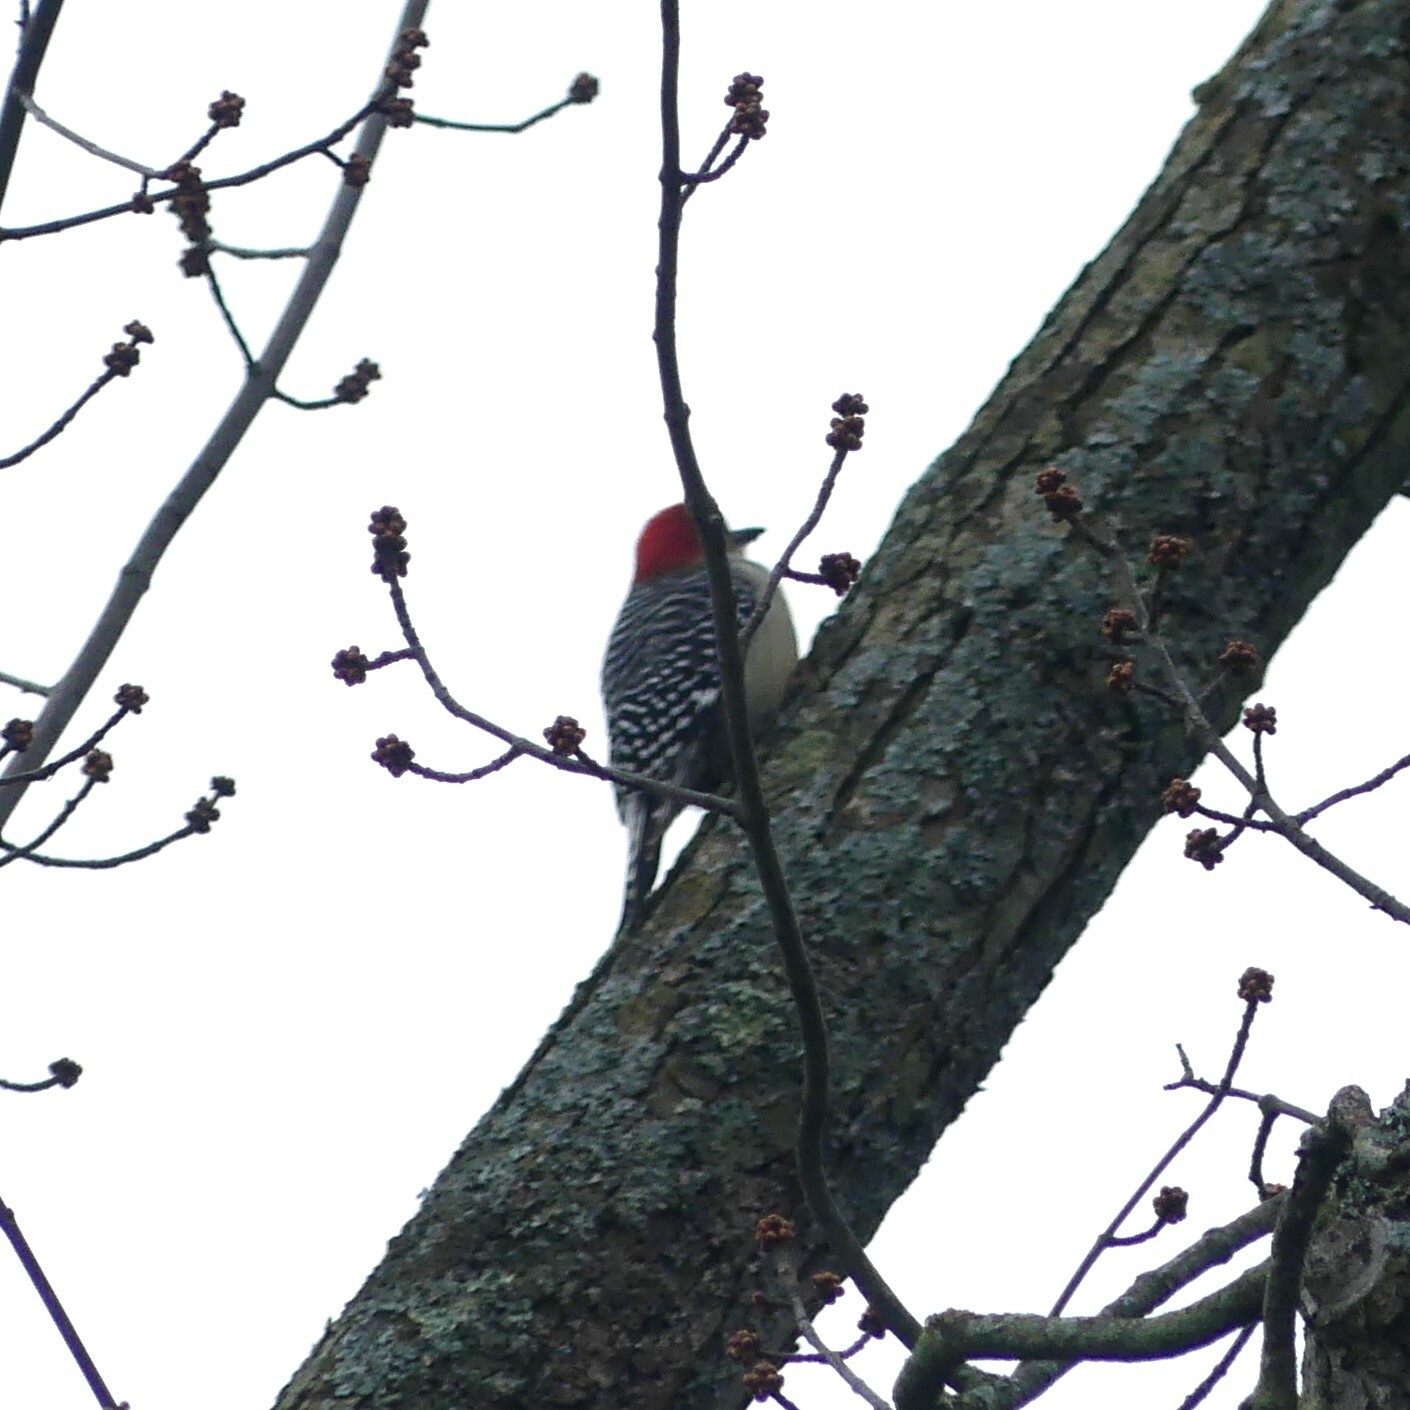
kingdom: Animalia
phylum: Chordata
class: Aves
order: Piciformes
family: Picidae
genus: Melanerpes
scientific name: Melanerpes carolinus
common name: Red-bellied woodpecker
